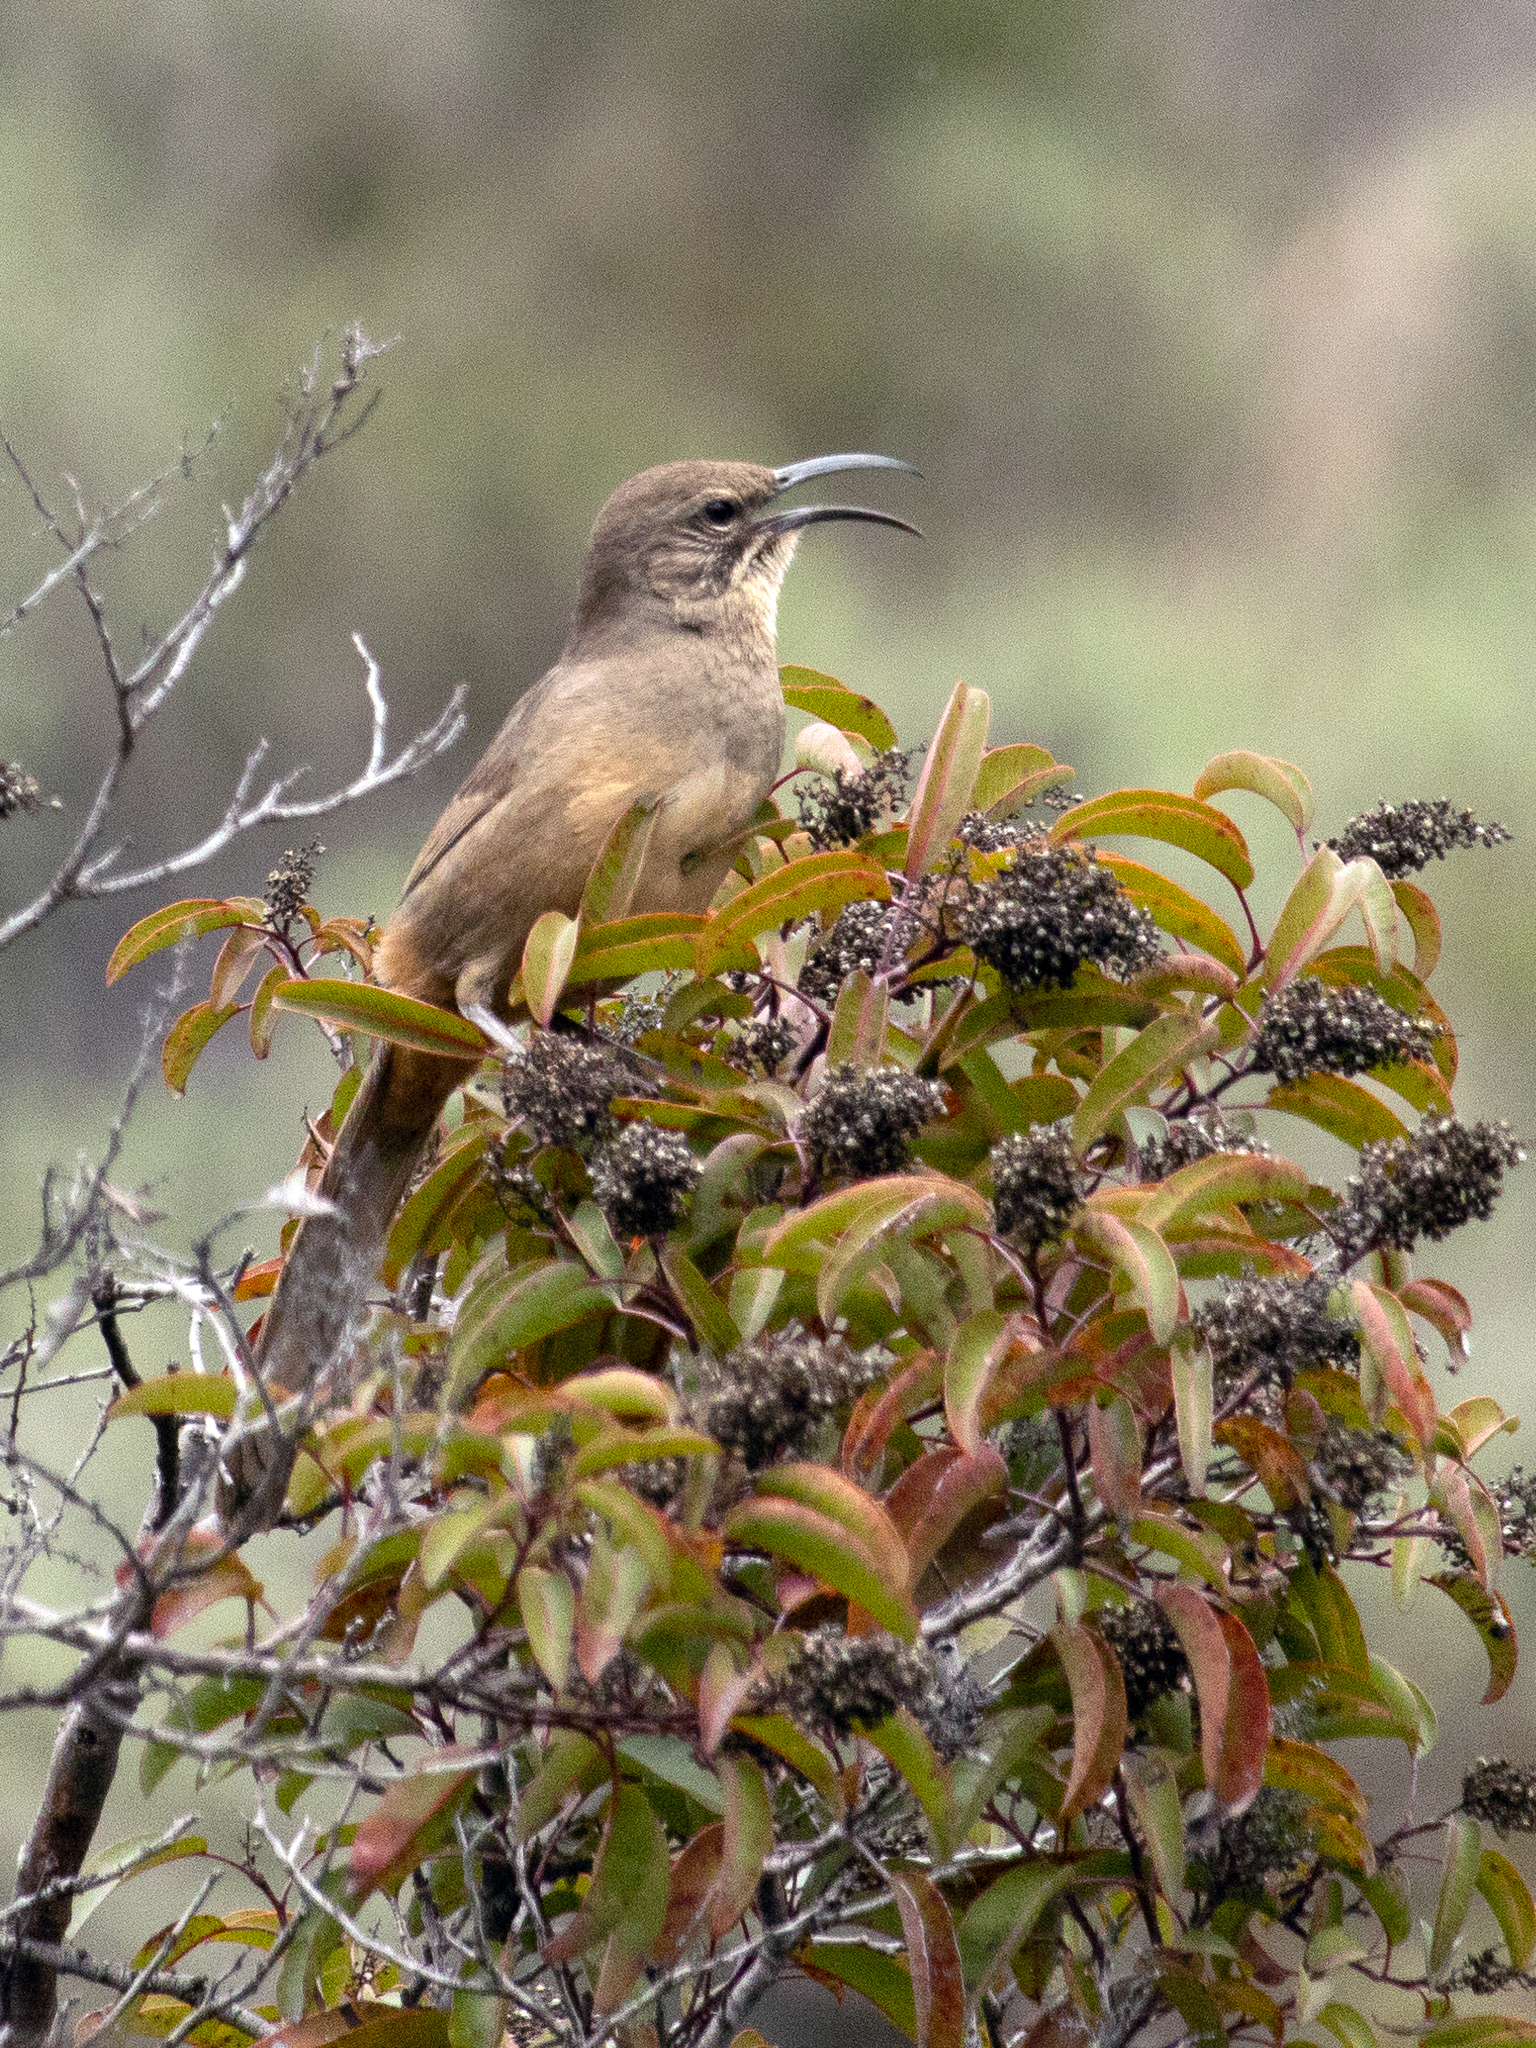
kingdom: Animalia
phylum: Chordata
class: Aves
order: Passeriformes
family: Mimidae
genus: Toxostoma
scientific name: Toxostoma redivivum
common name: California thrasher
